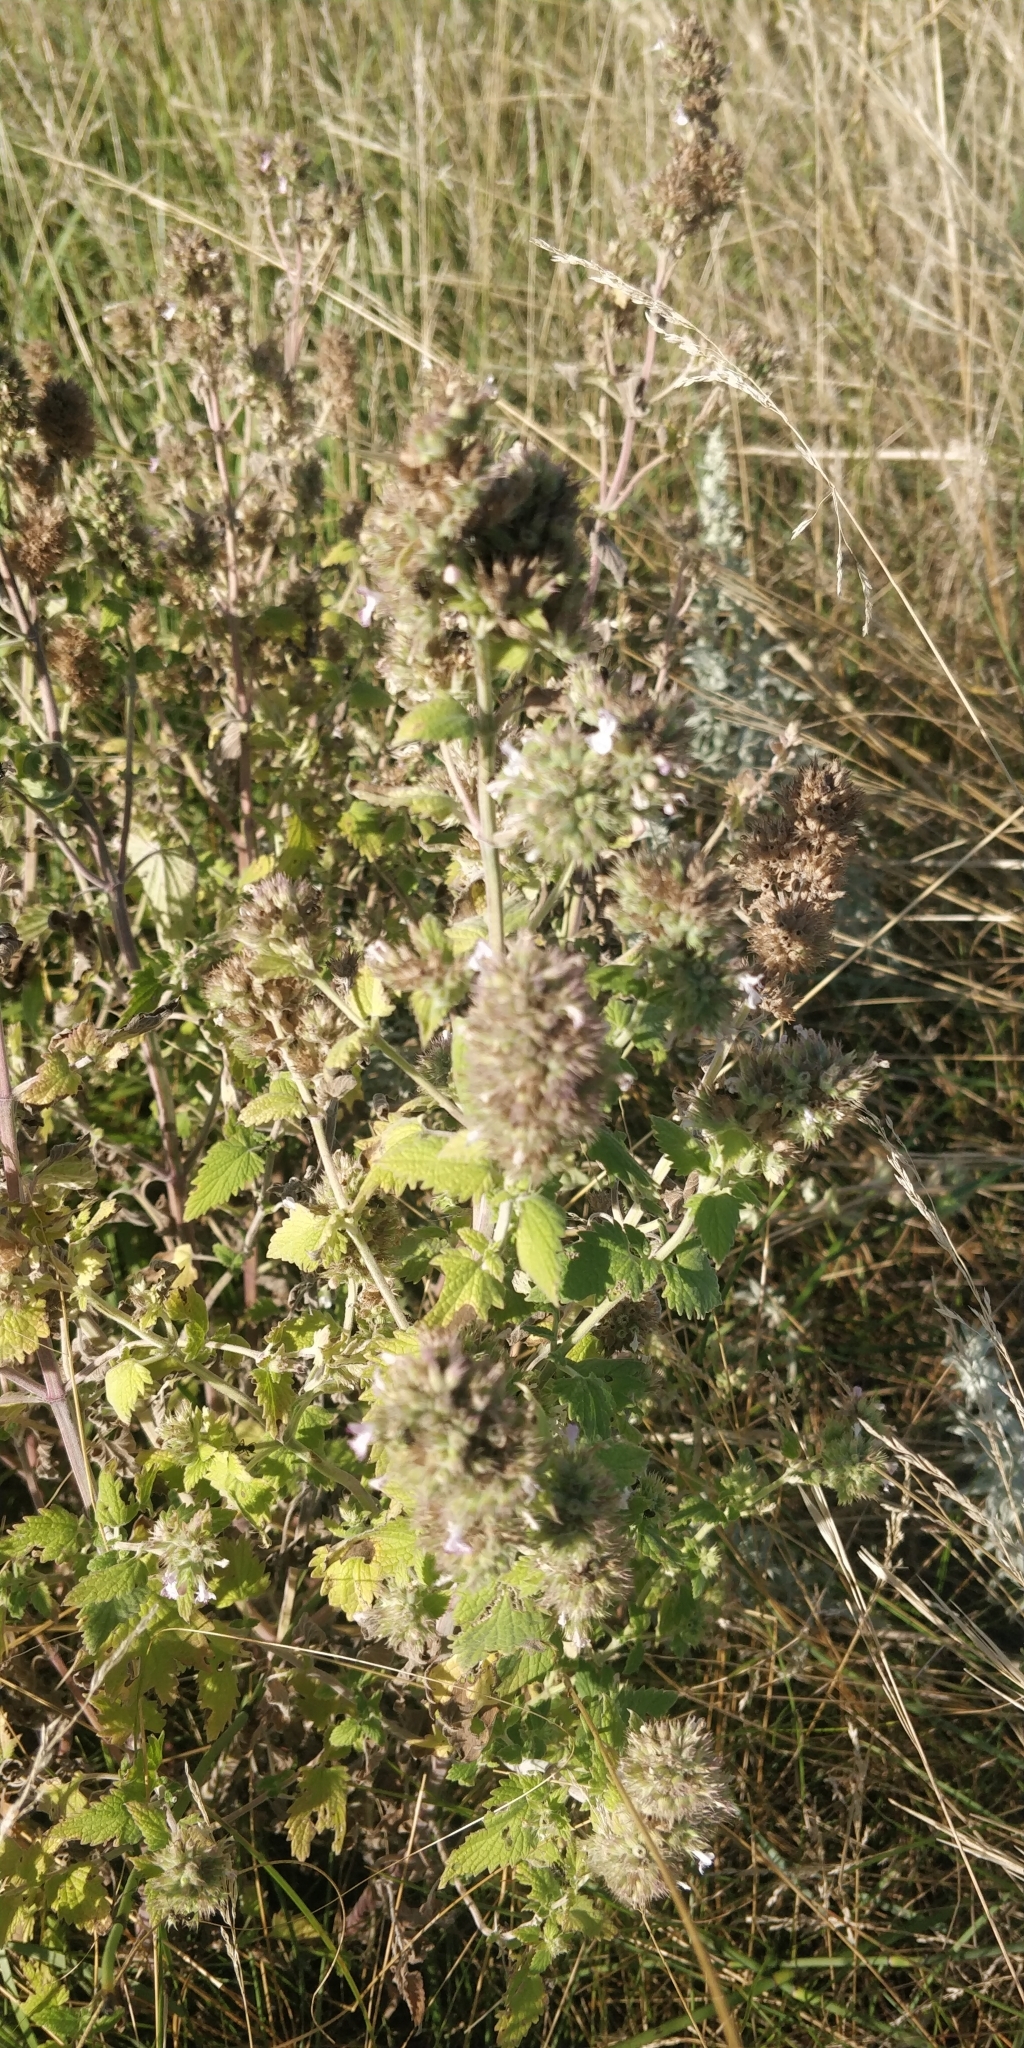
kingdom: Plantae
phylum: Tracheophyta
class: Magnoliopsida
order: Lamiales
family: Lamiaceae
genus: Nepeta
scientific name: Nepeta cataria
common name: Catnip
